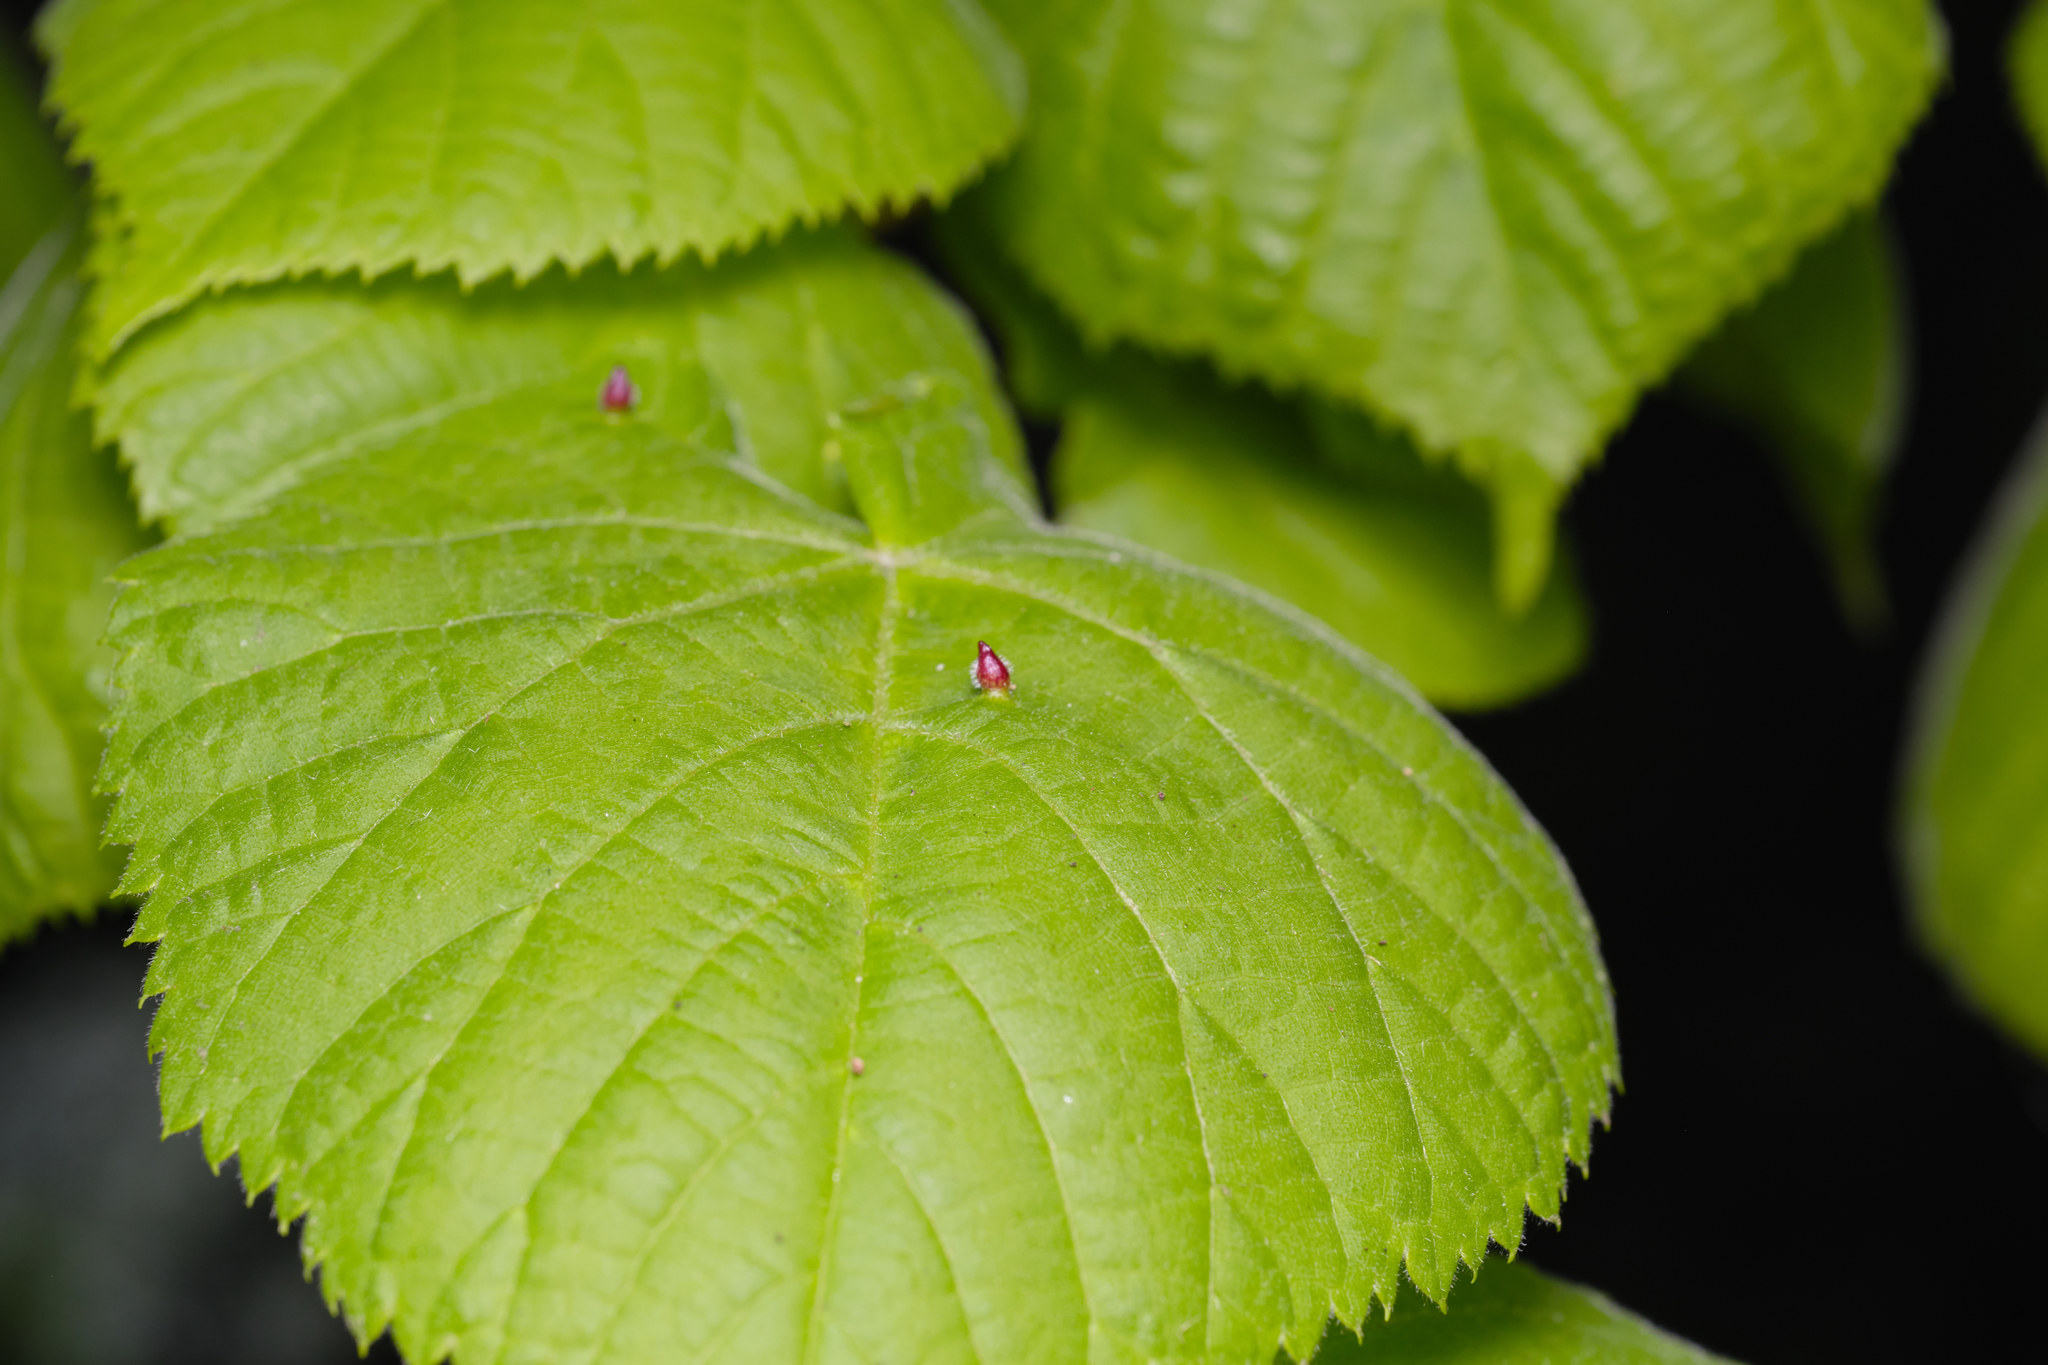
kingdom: Animalia
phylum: Arthropoda
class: Arachnida
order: Trombidiformes
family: Eriophyidae
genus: Eriophyes
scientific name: Eriophyes tiliae
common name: Red nail gall mite
